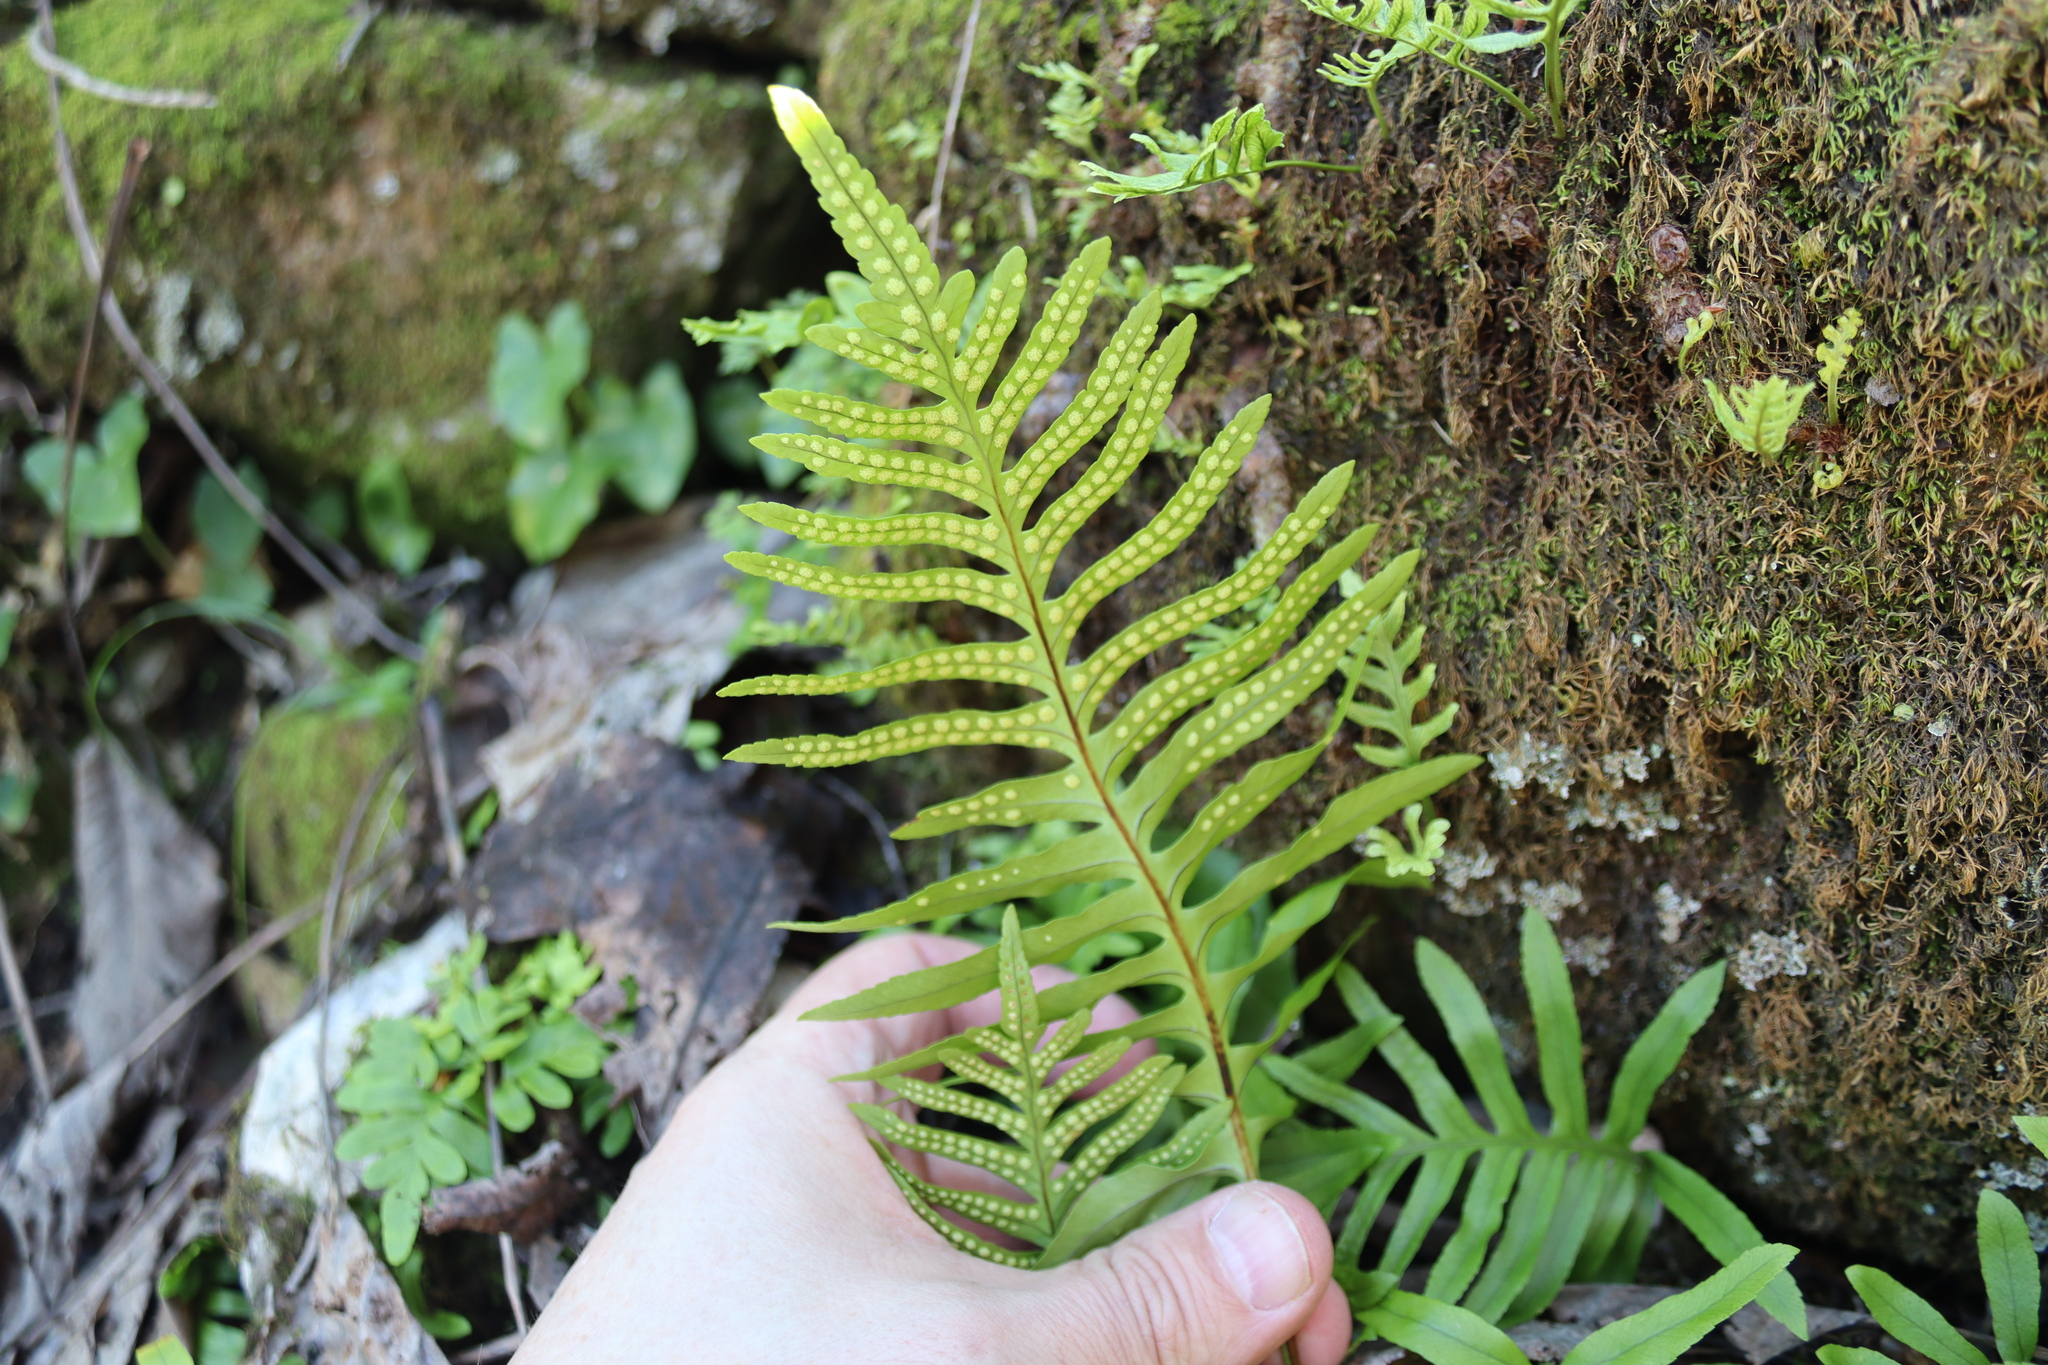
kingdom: Plantae
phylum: Tracheophyta
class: Polypodiopsida
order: Polypodiales
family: Polypodiaceae
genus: Polypodium
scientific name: Polypodium cambricum
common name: Southern polypody
